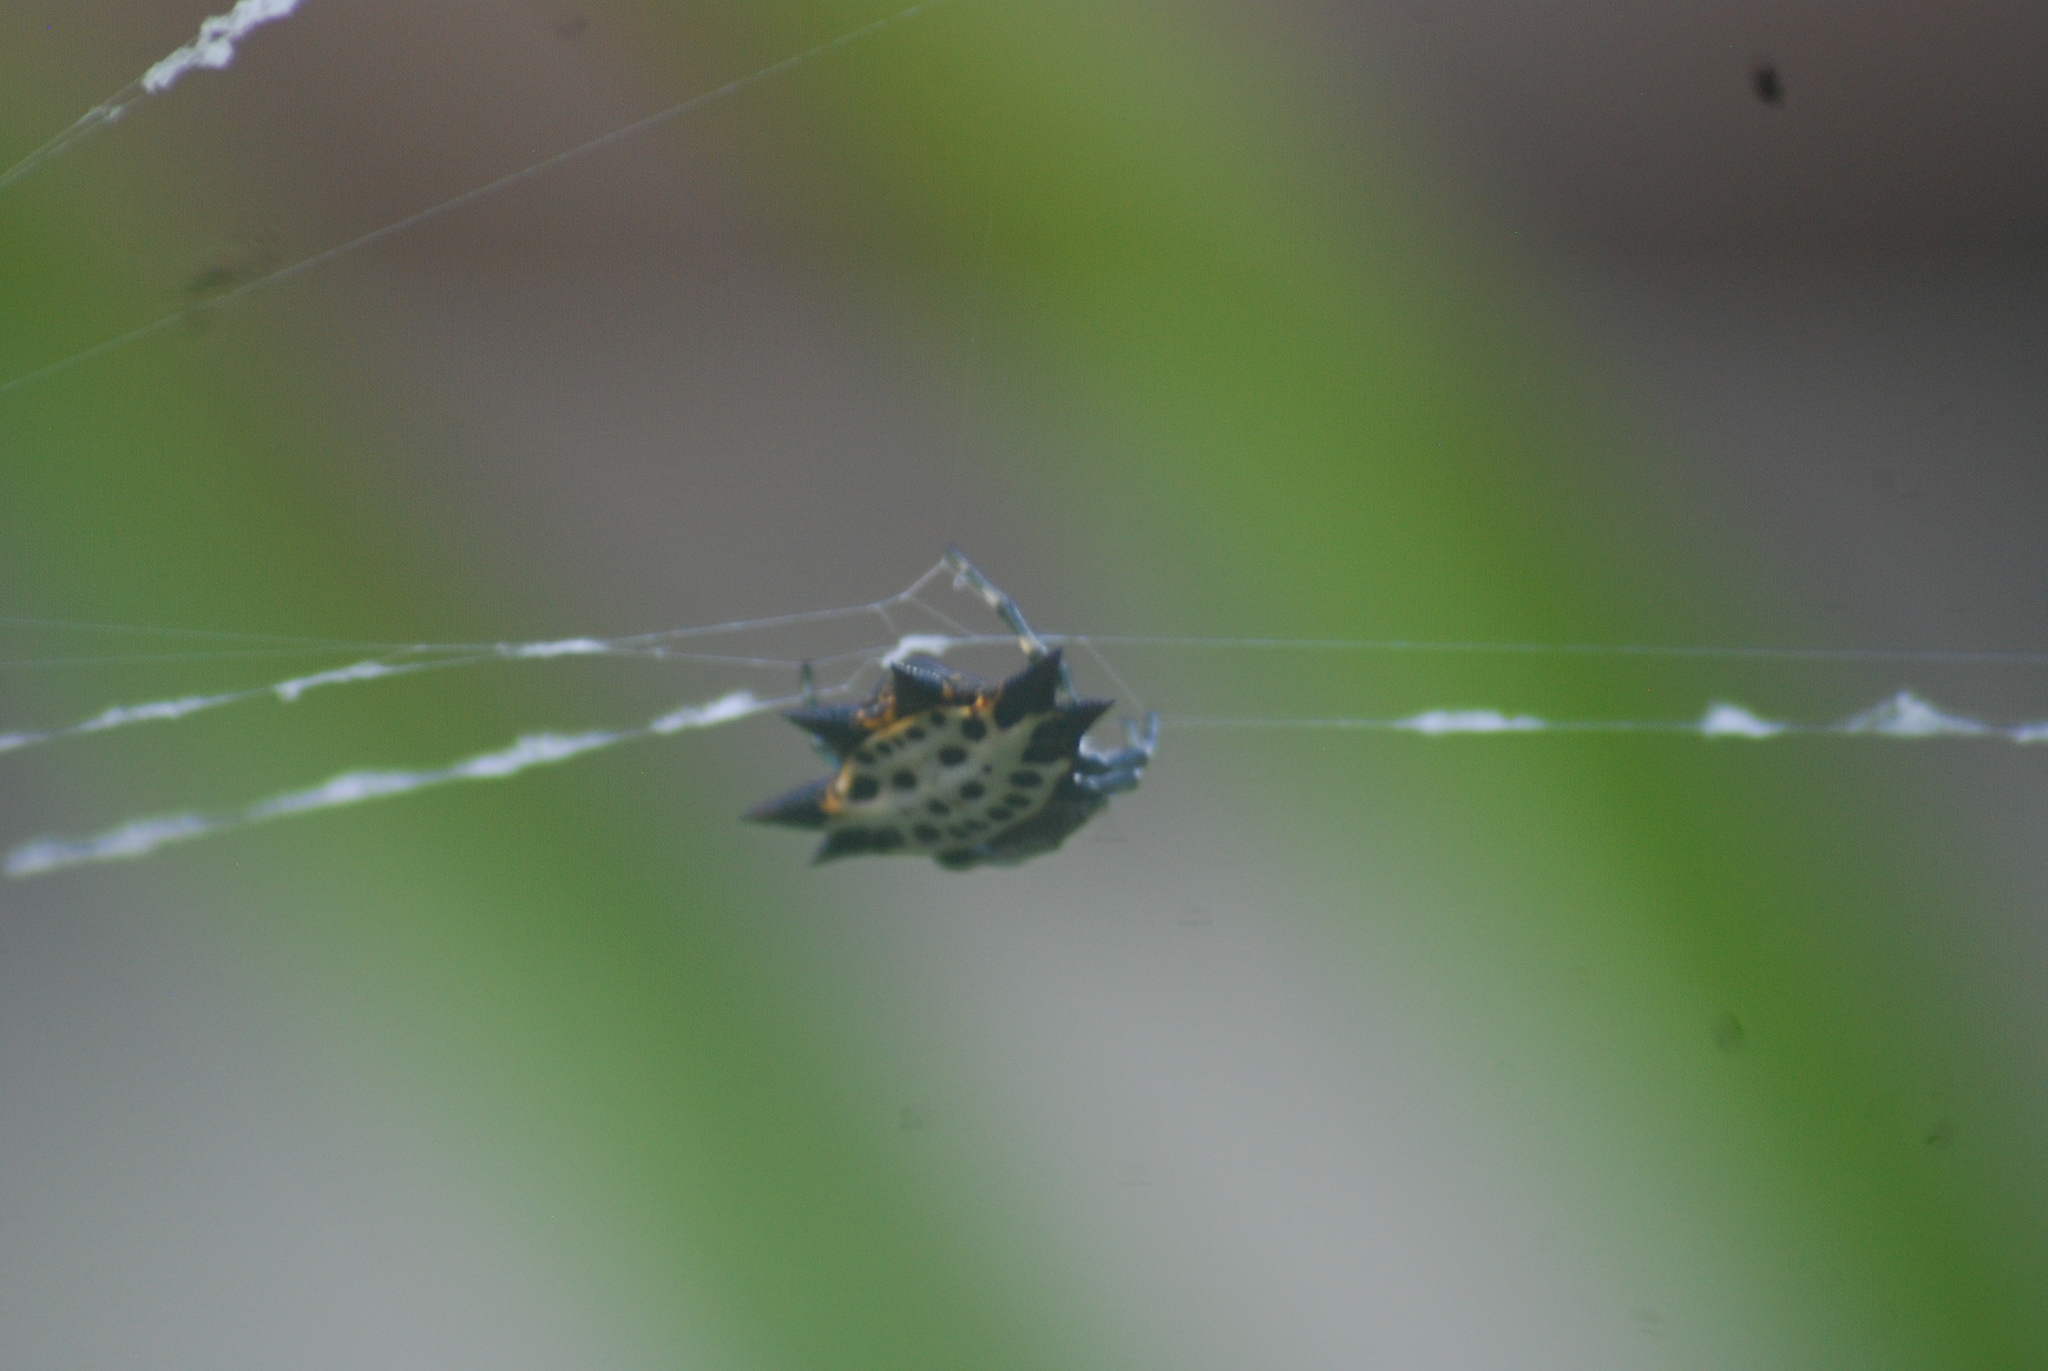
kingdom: Animalia
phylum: Arthropoda
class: Arachnida
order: Araneae
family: Araneidae
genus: Gasteracantha
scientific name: Gasteracantha cancriformis
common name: Orb weavers
